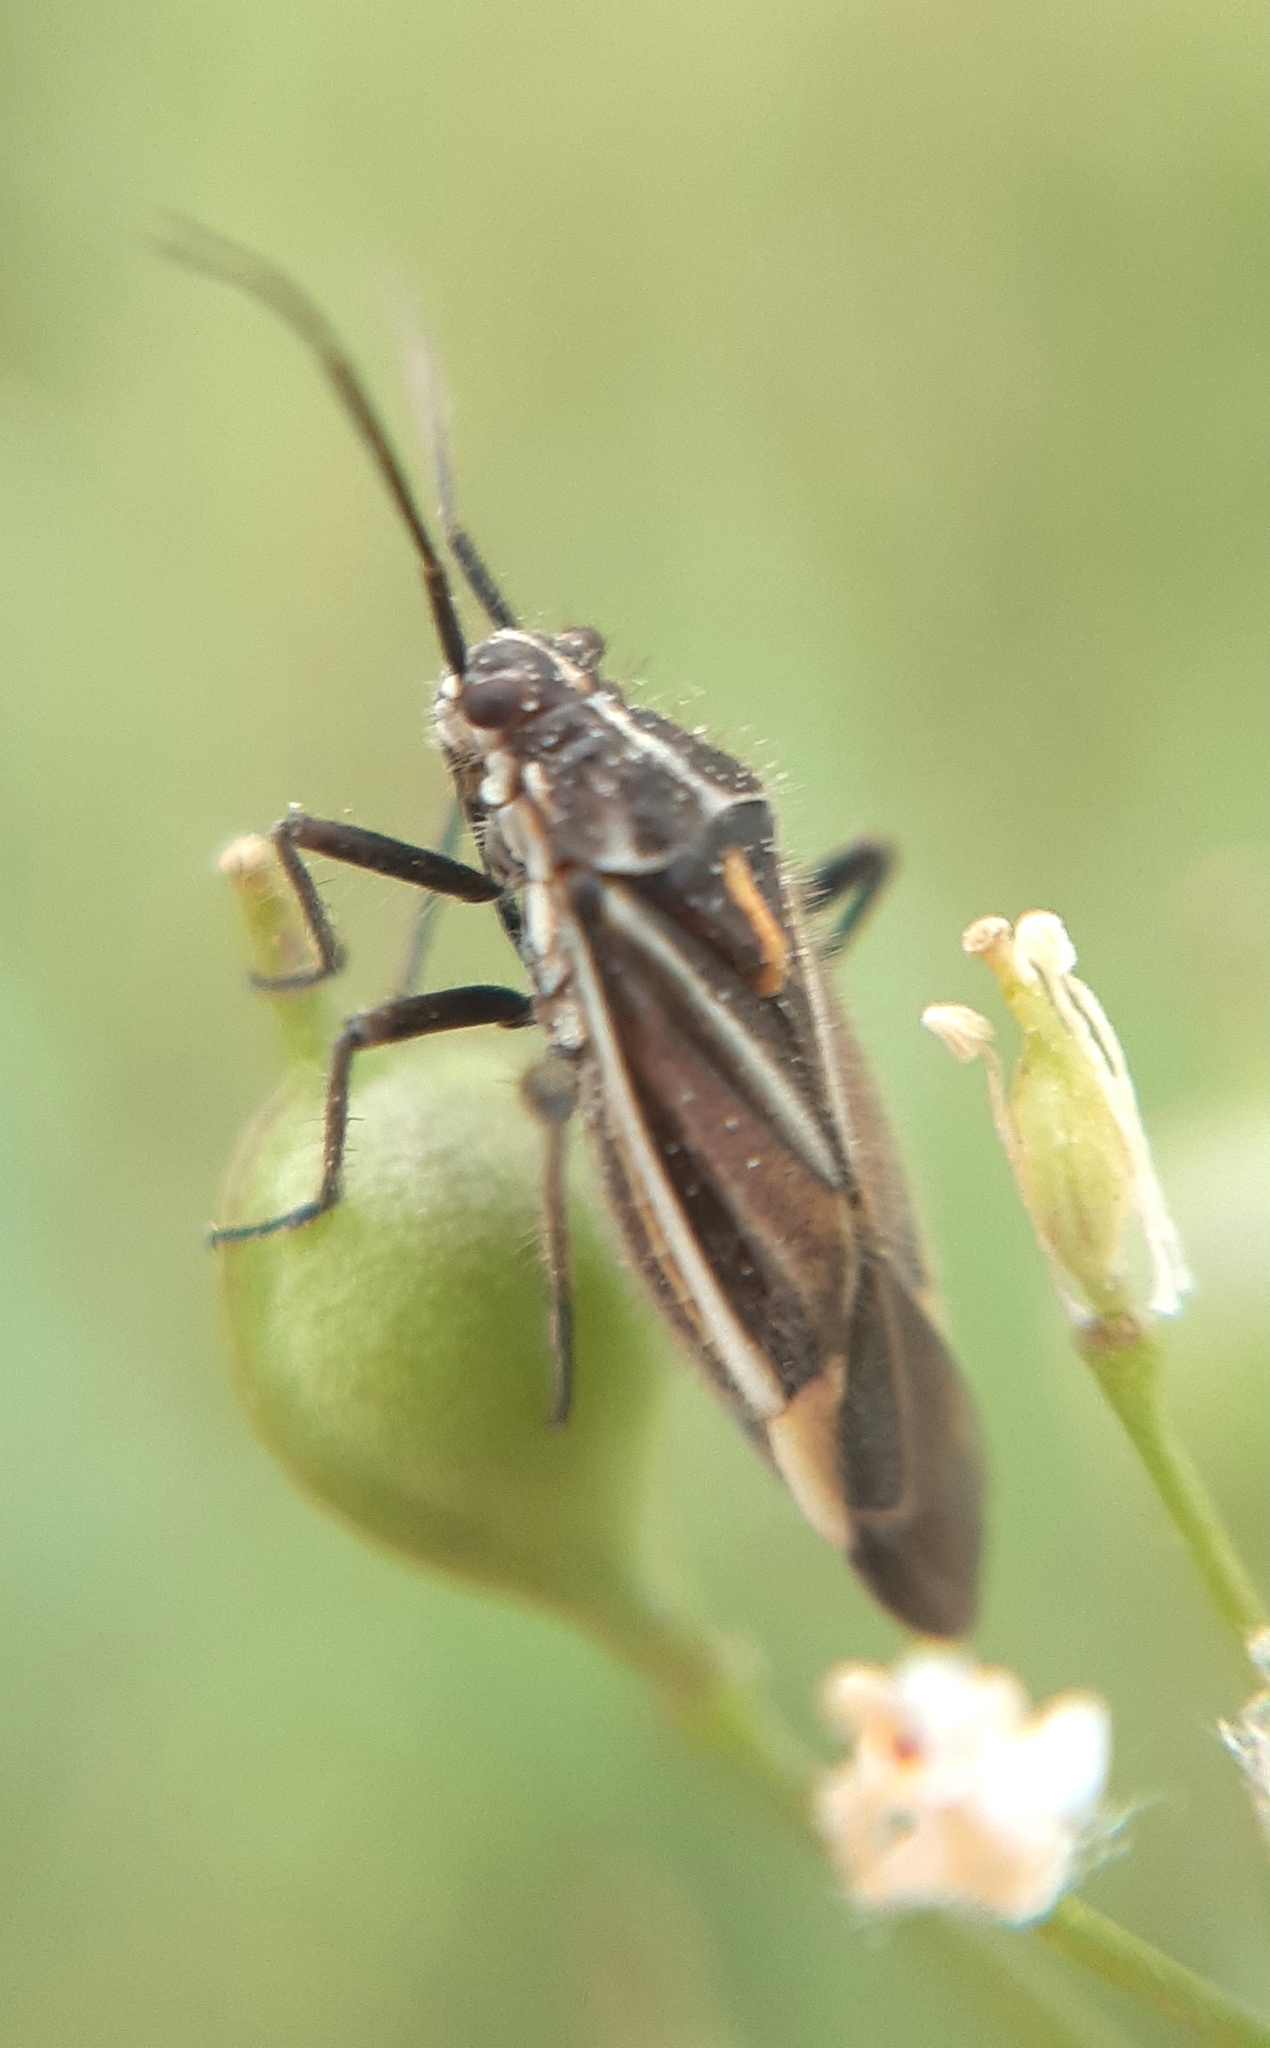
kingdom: Animalia
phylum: Arthropoda
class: Insecta
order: Hemiptera
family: Miridae
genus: Horistus
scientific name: Horistus orientalis
